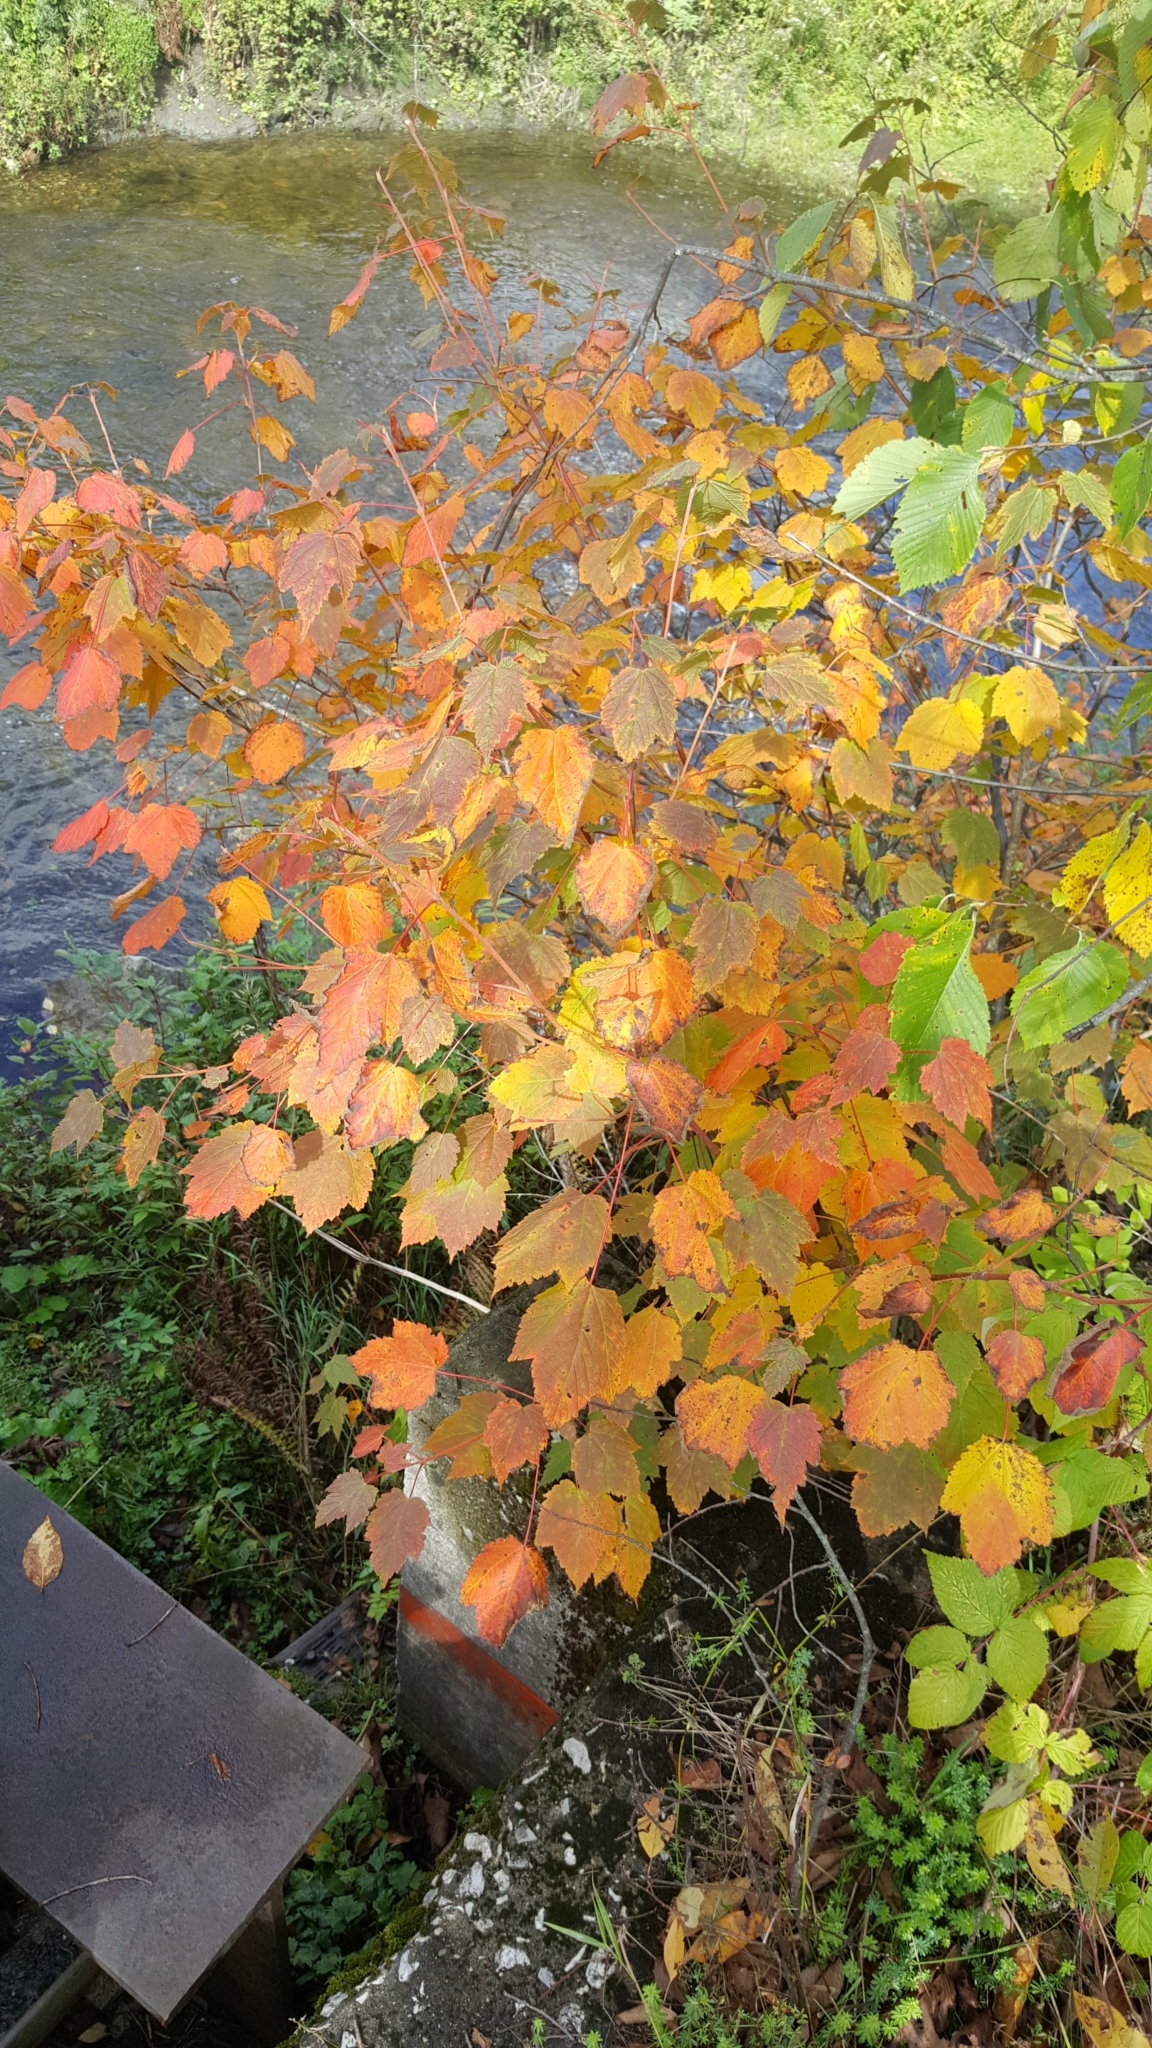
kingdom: Plantae
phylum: Tracheophyta
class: Magnoliopsida
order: Sapindales
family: Sapindaceae
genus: Acer
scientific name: Acer spicatum
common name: Mountain maple
